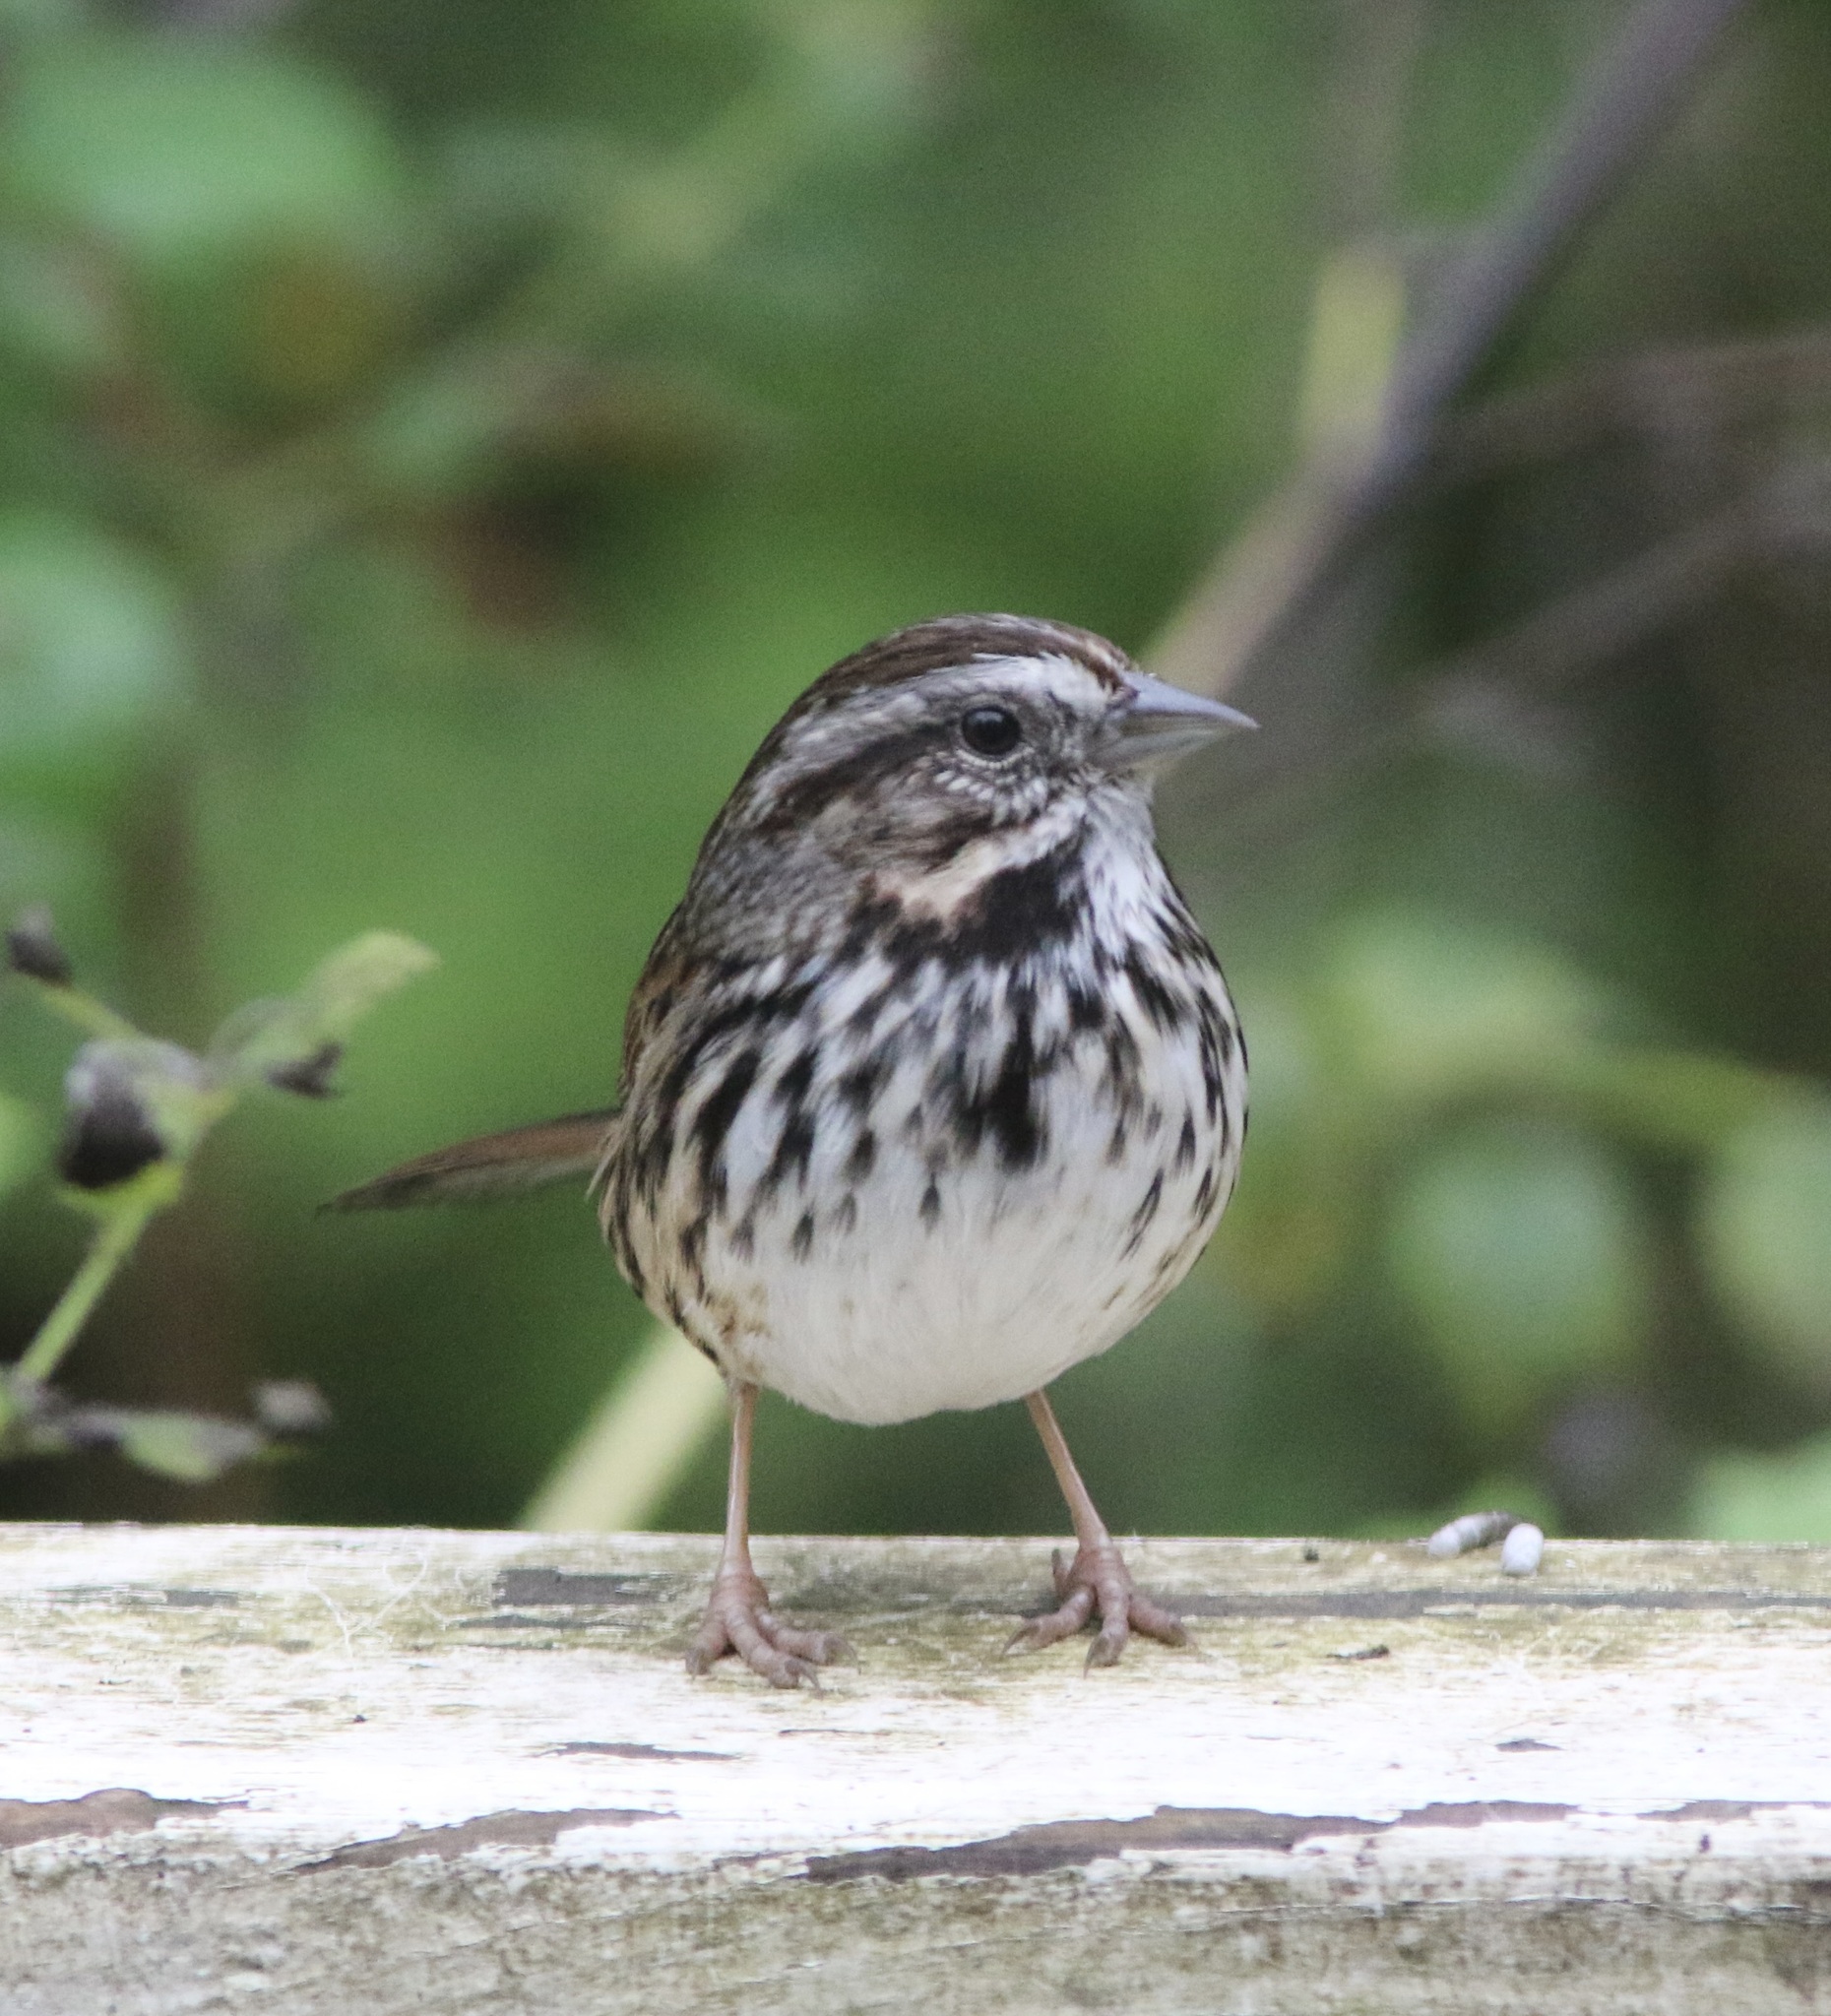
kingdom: Animalia
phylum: Chordata
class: Aves
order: Passeriformes
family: Passerellidae
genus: Melospiza
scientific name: Melospiza melodia
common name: Song sparrow
